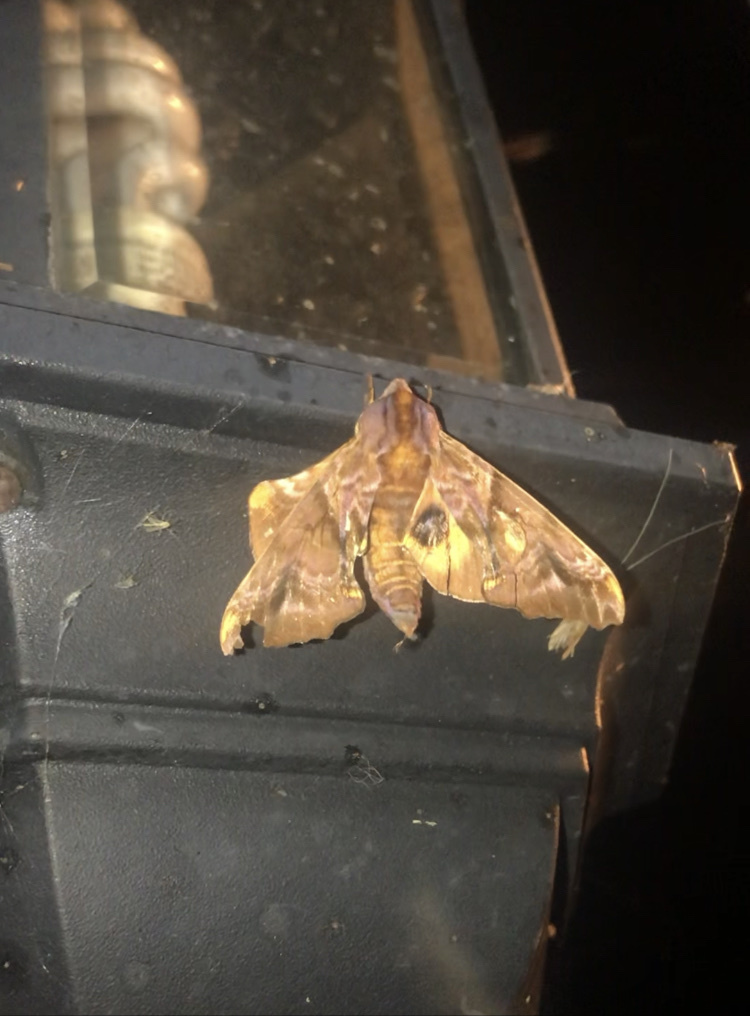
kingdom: Animalia
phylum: Arthropoda
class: Insecta
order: Lepidoptera
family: Sphingidae
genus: Paonias
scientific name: Paonias myops
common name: Small-eyed sphinx
